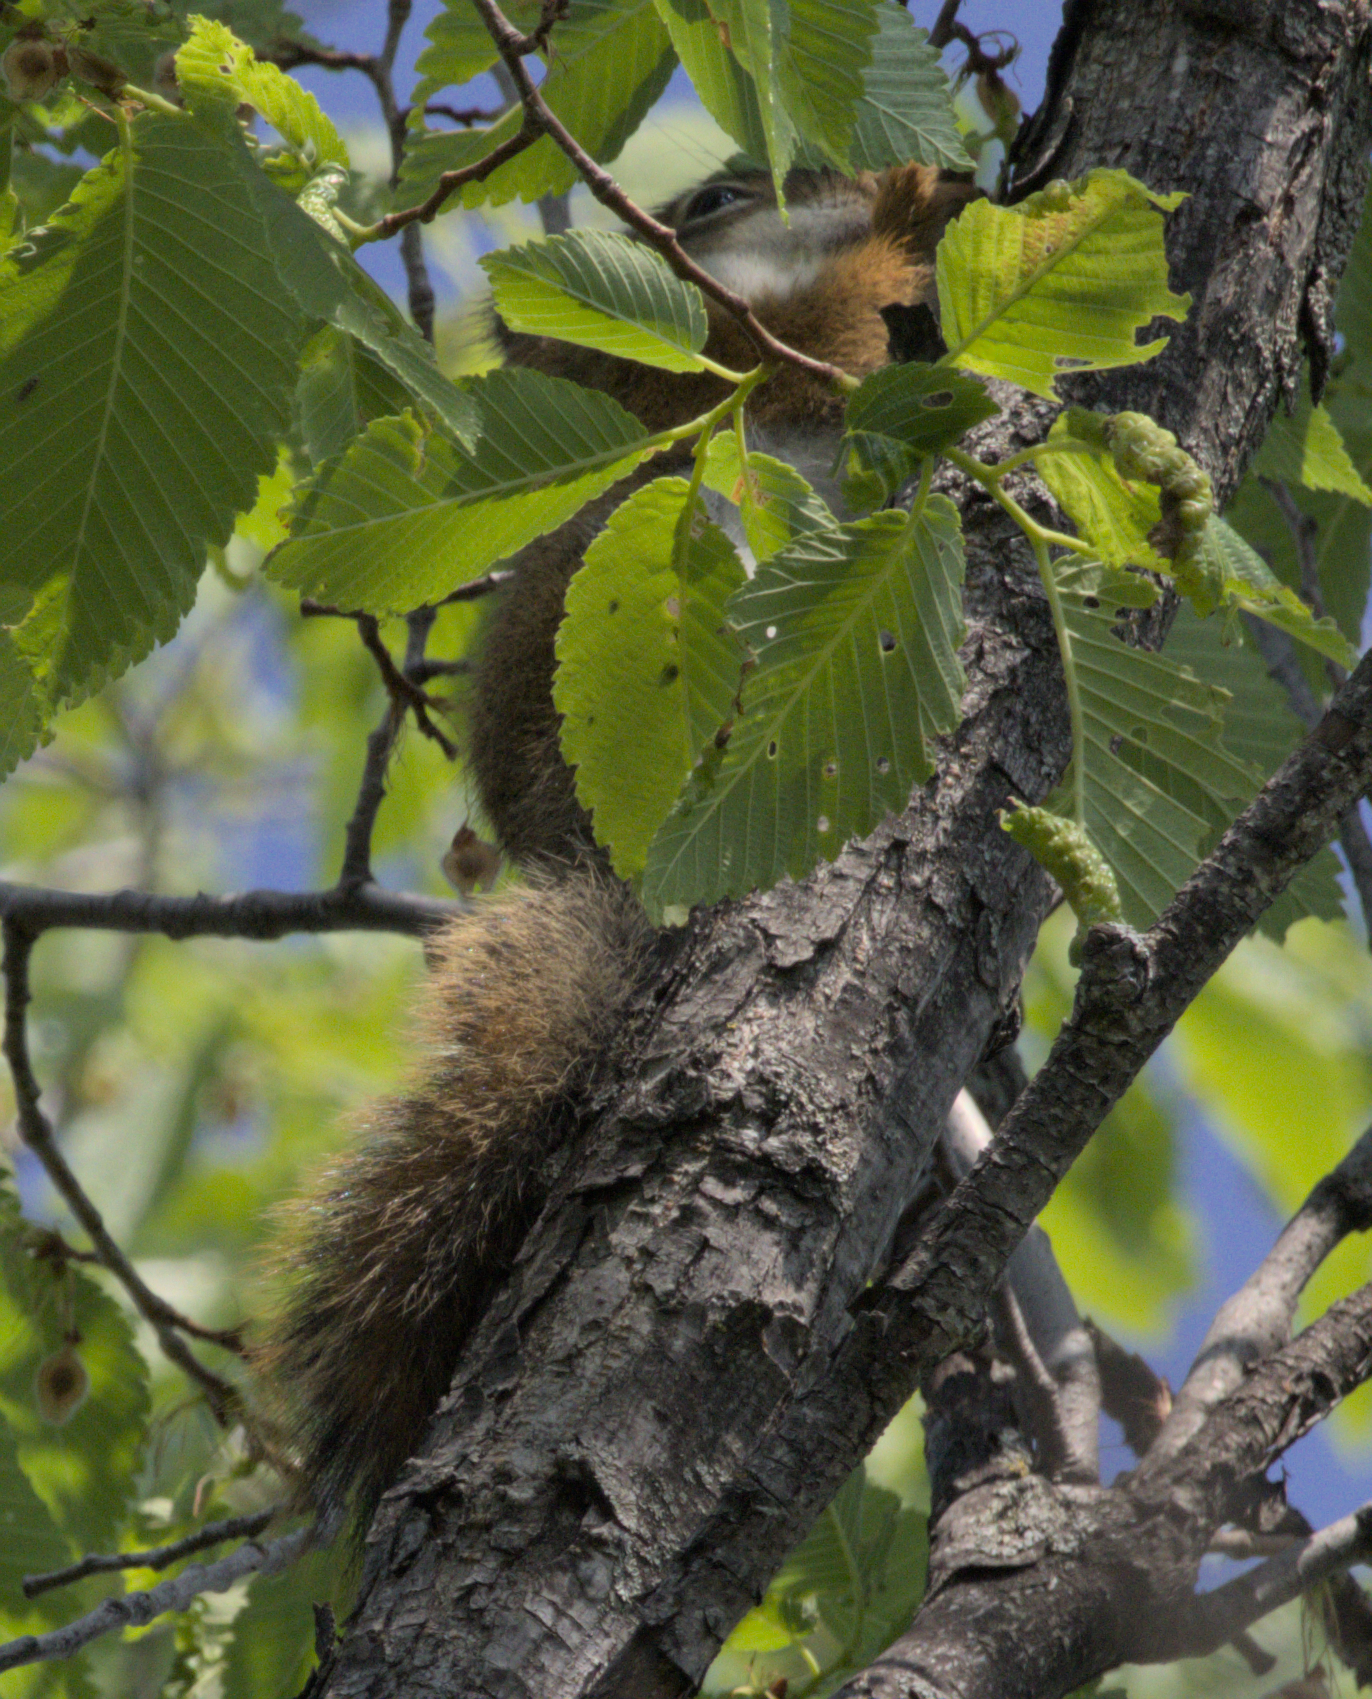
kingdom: Animalia
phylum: Chordata
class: Mammalia
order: Rodentia
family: Sciuridae
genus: Tamiasciurus
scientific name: Tamiasciurus hudsonicus
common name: Red squirrel
